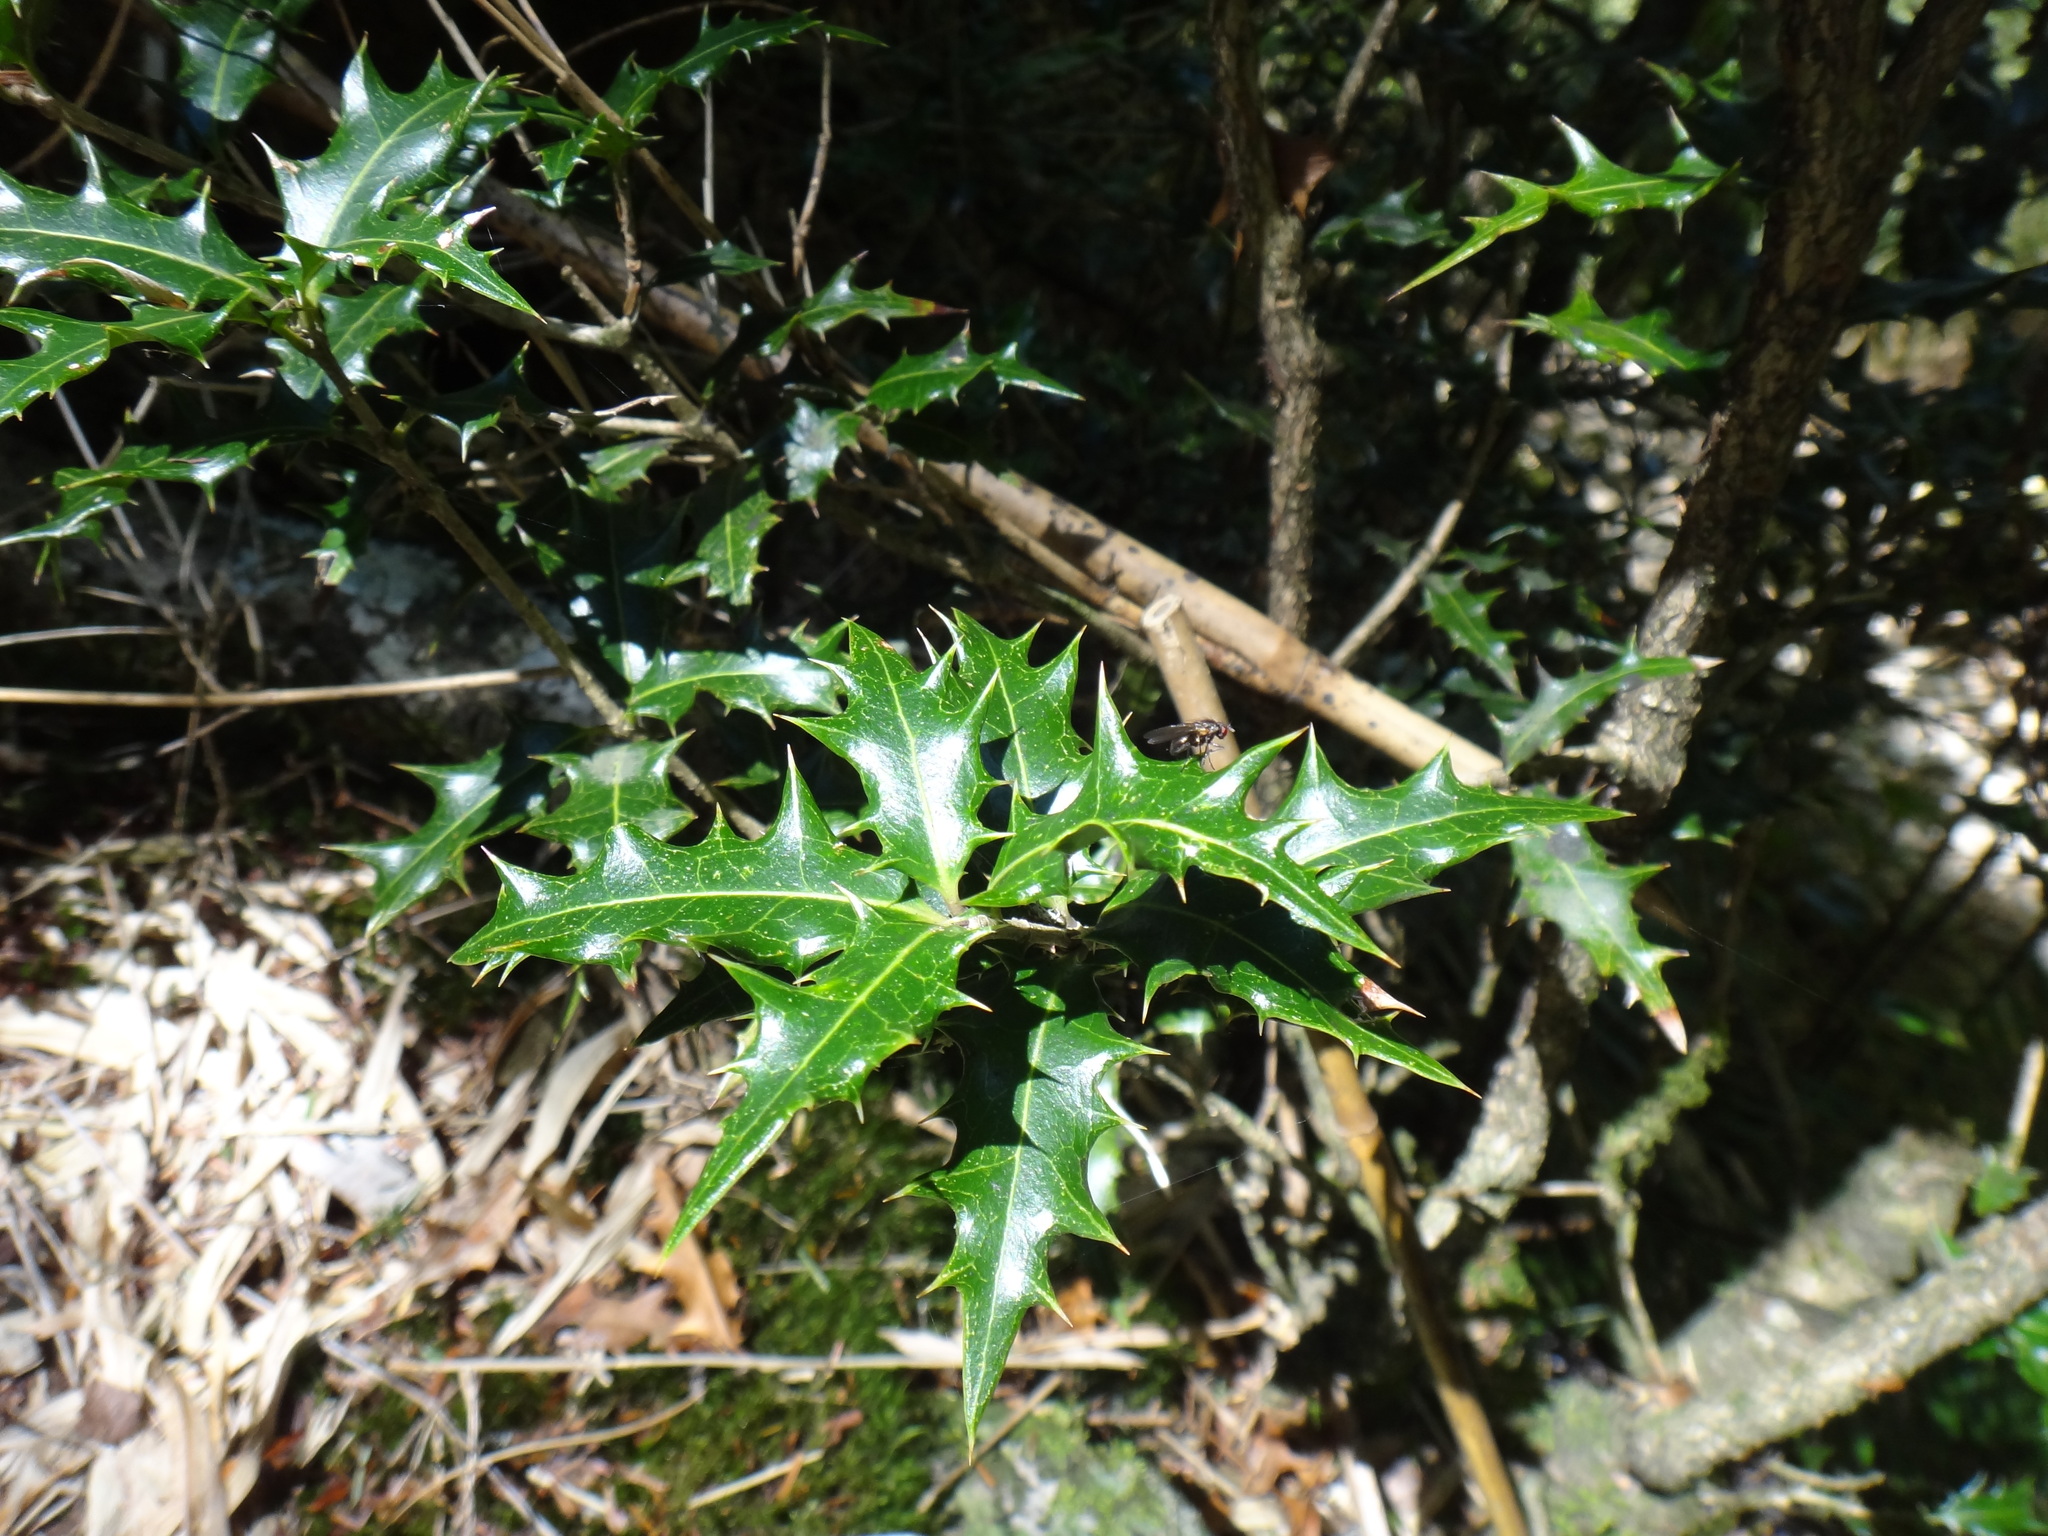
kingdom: Plantae
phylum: Tracheophyta
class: Magnoliopsida
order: Lamiales
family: Oleaceae
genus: Osmanthus
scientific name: Osmanthus heterophyllus
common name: Holly osmanthus
